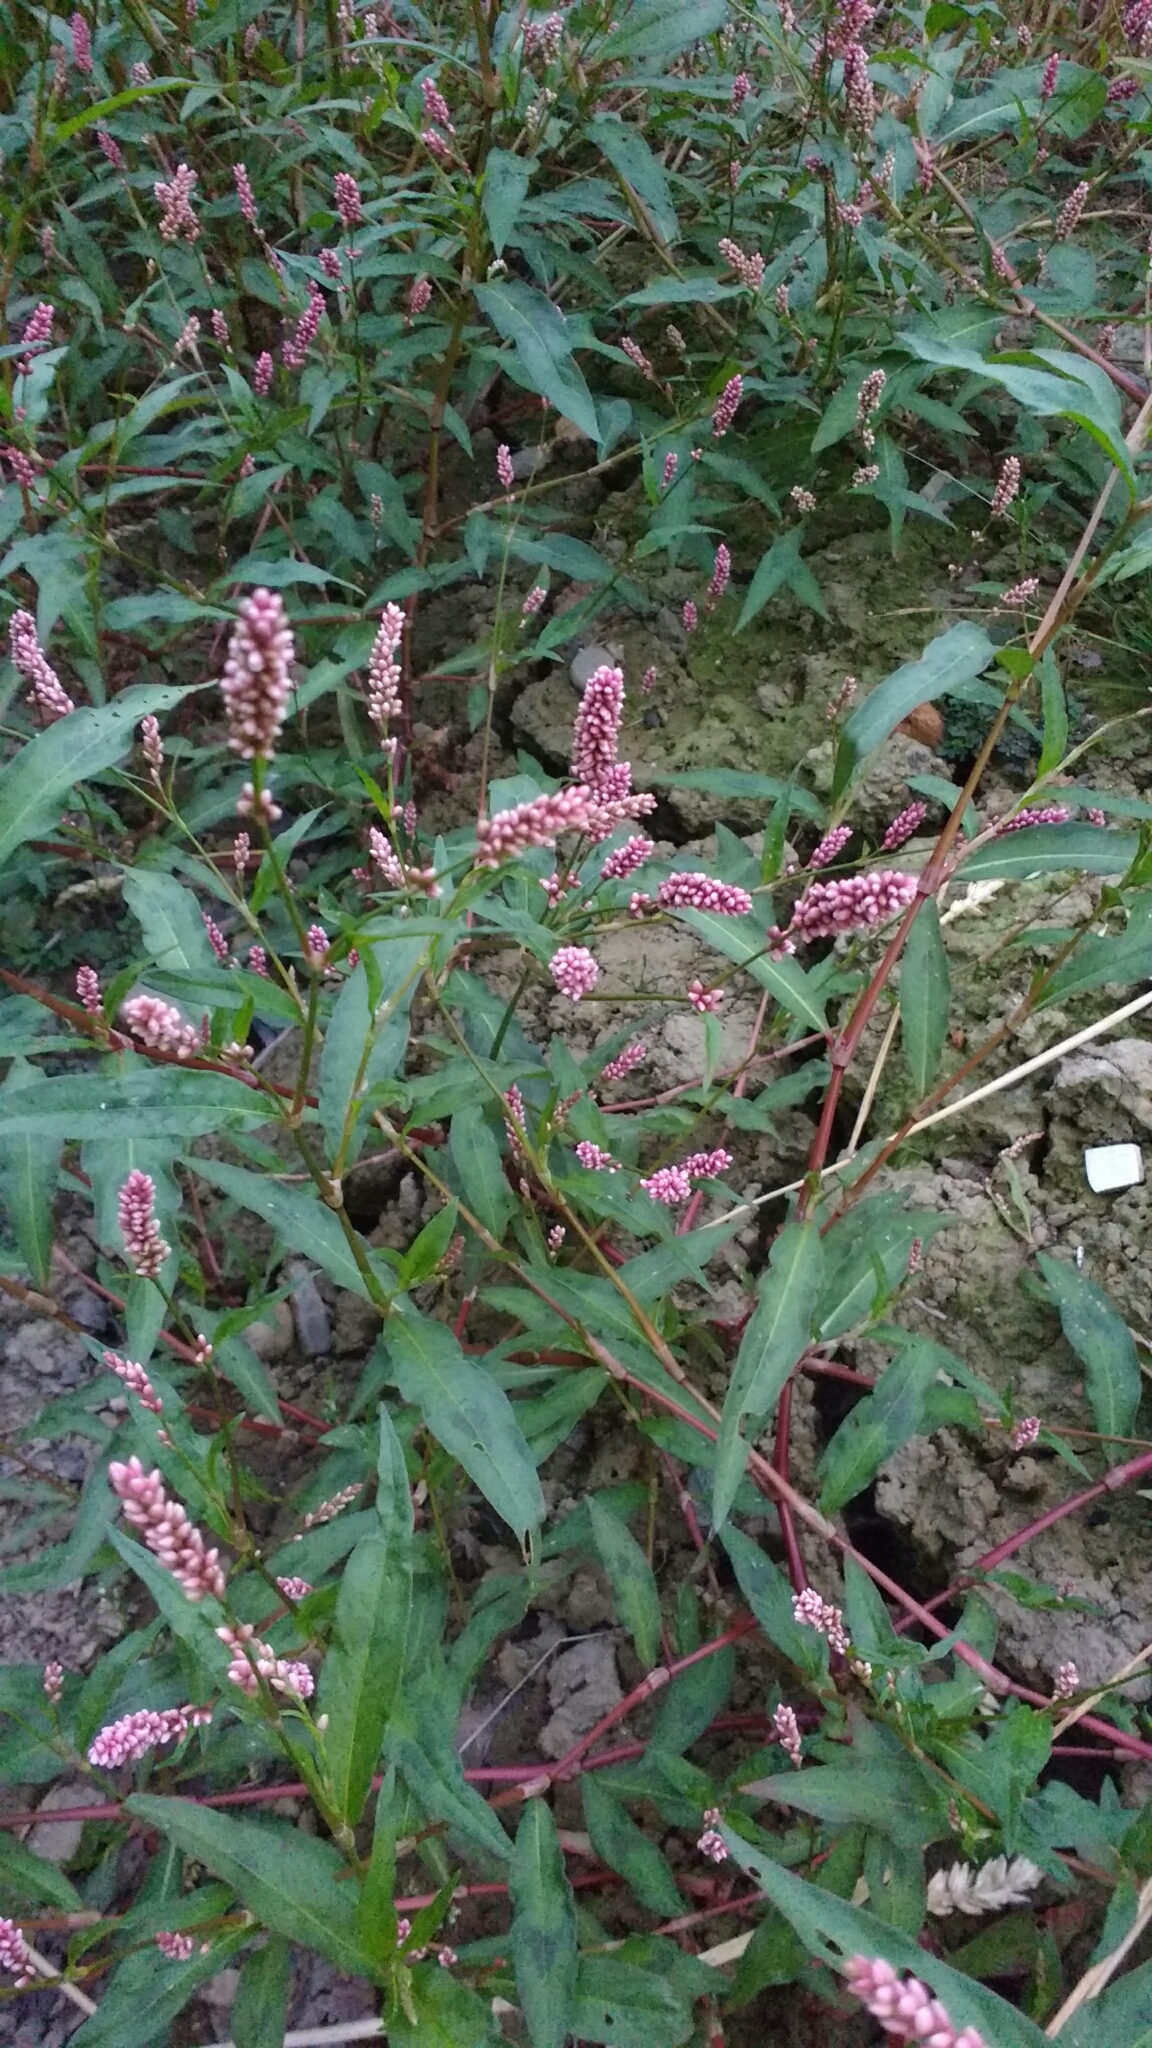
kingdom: Plantae
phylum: Tracheophyta
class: Magnoliopsida
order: Caryophyllales
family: Polygonaceae
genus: Persicaria
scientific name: Persicaria maculosa
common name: Redshank
